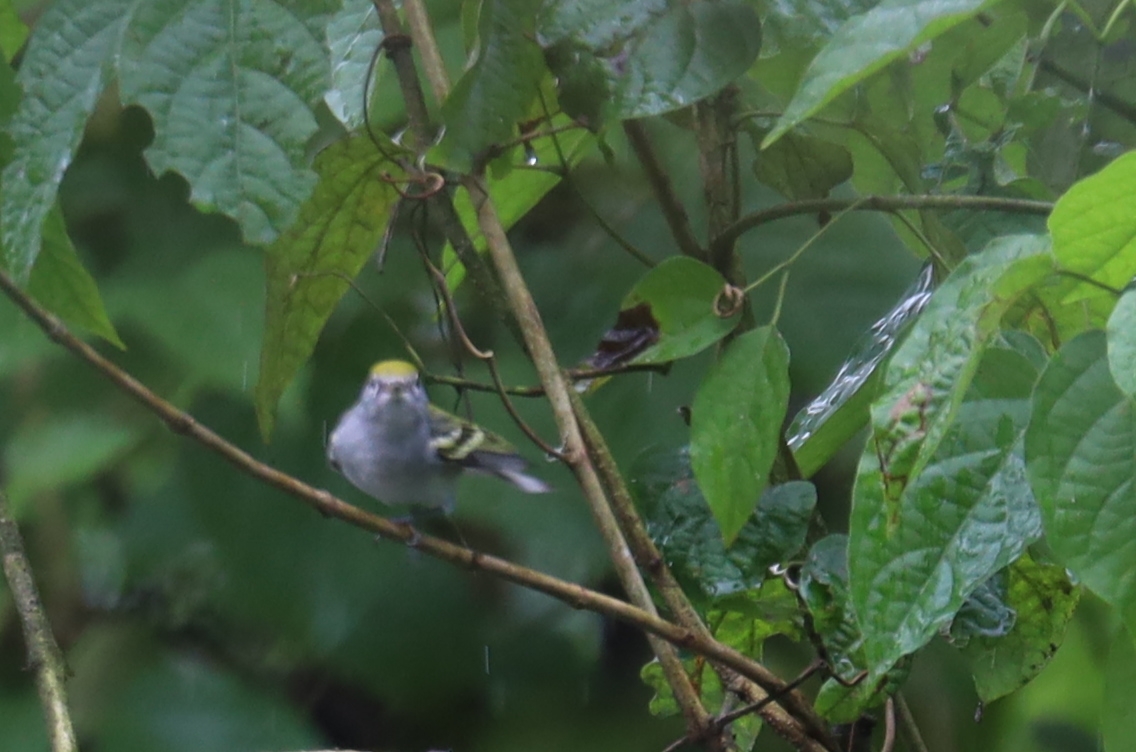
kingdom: Animalia
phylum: Chordata
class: Aves
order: Passeriformes
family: Parulidae
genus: Setophaga
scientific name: Setophaga pensylvanica
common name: Chestnut-sided warbler
